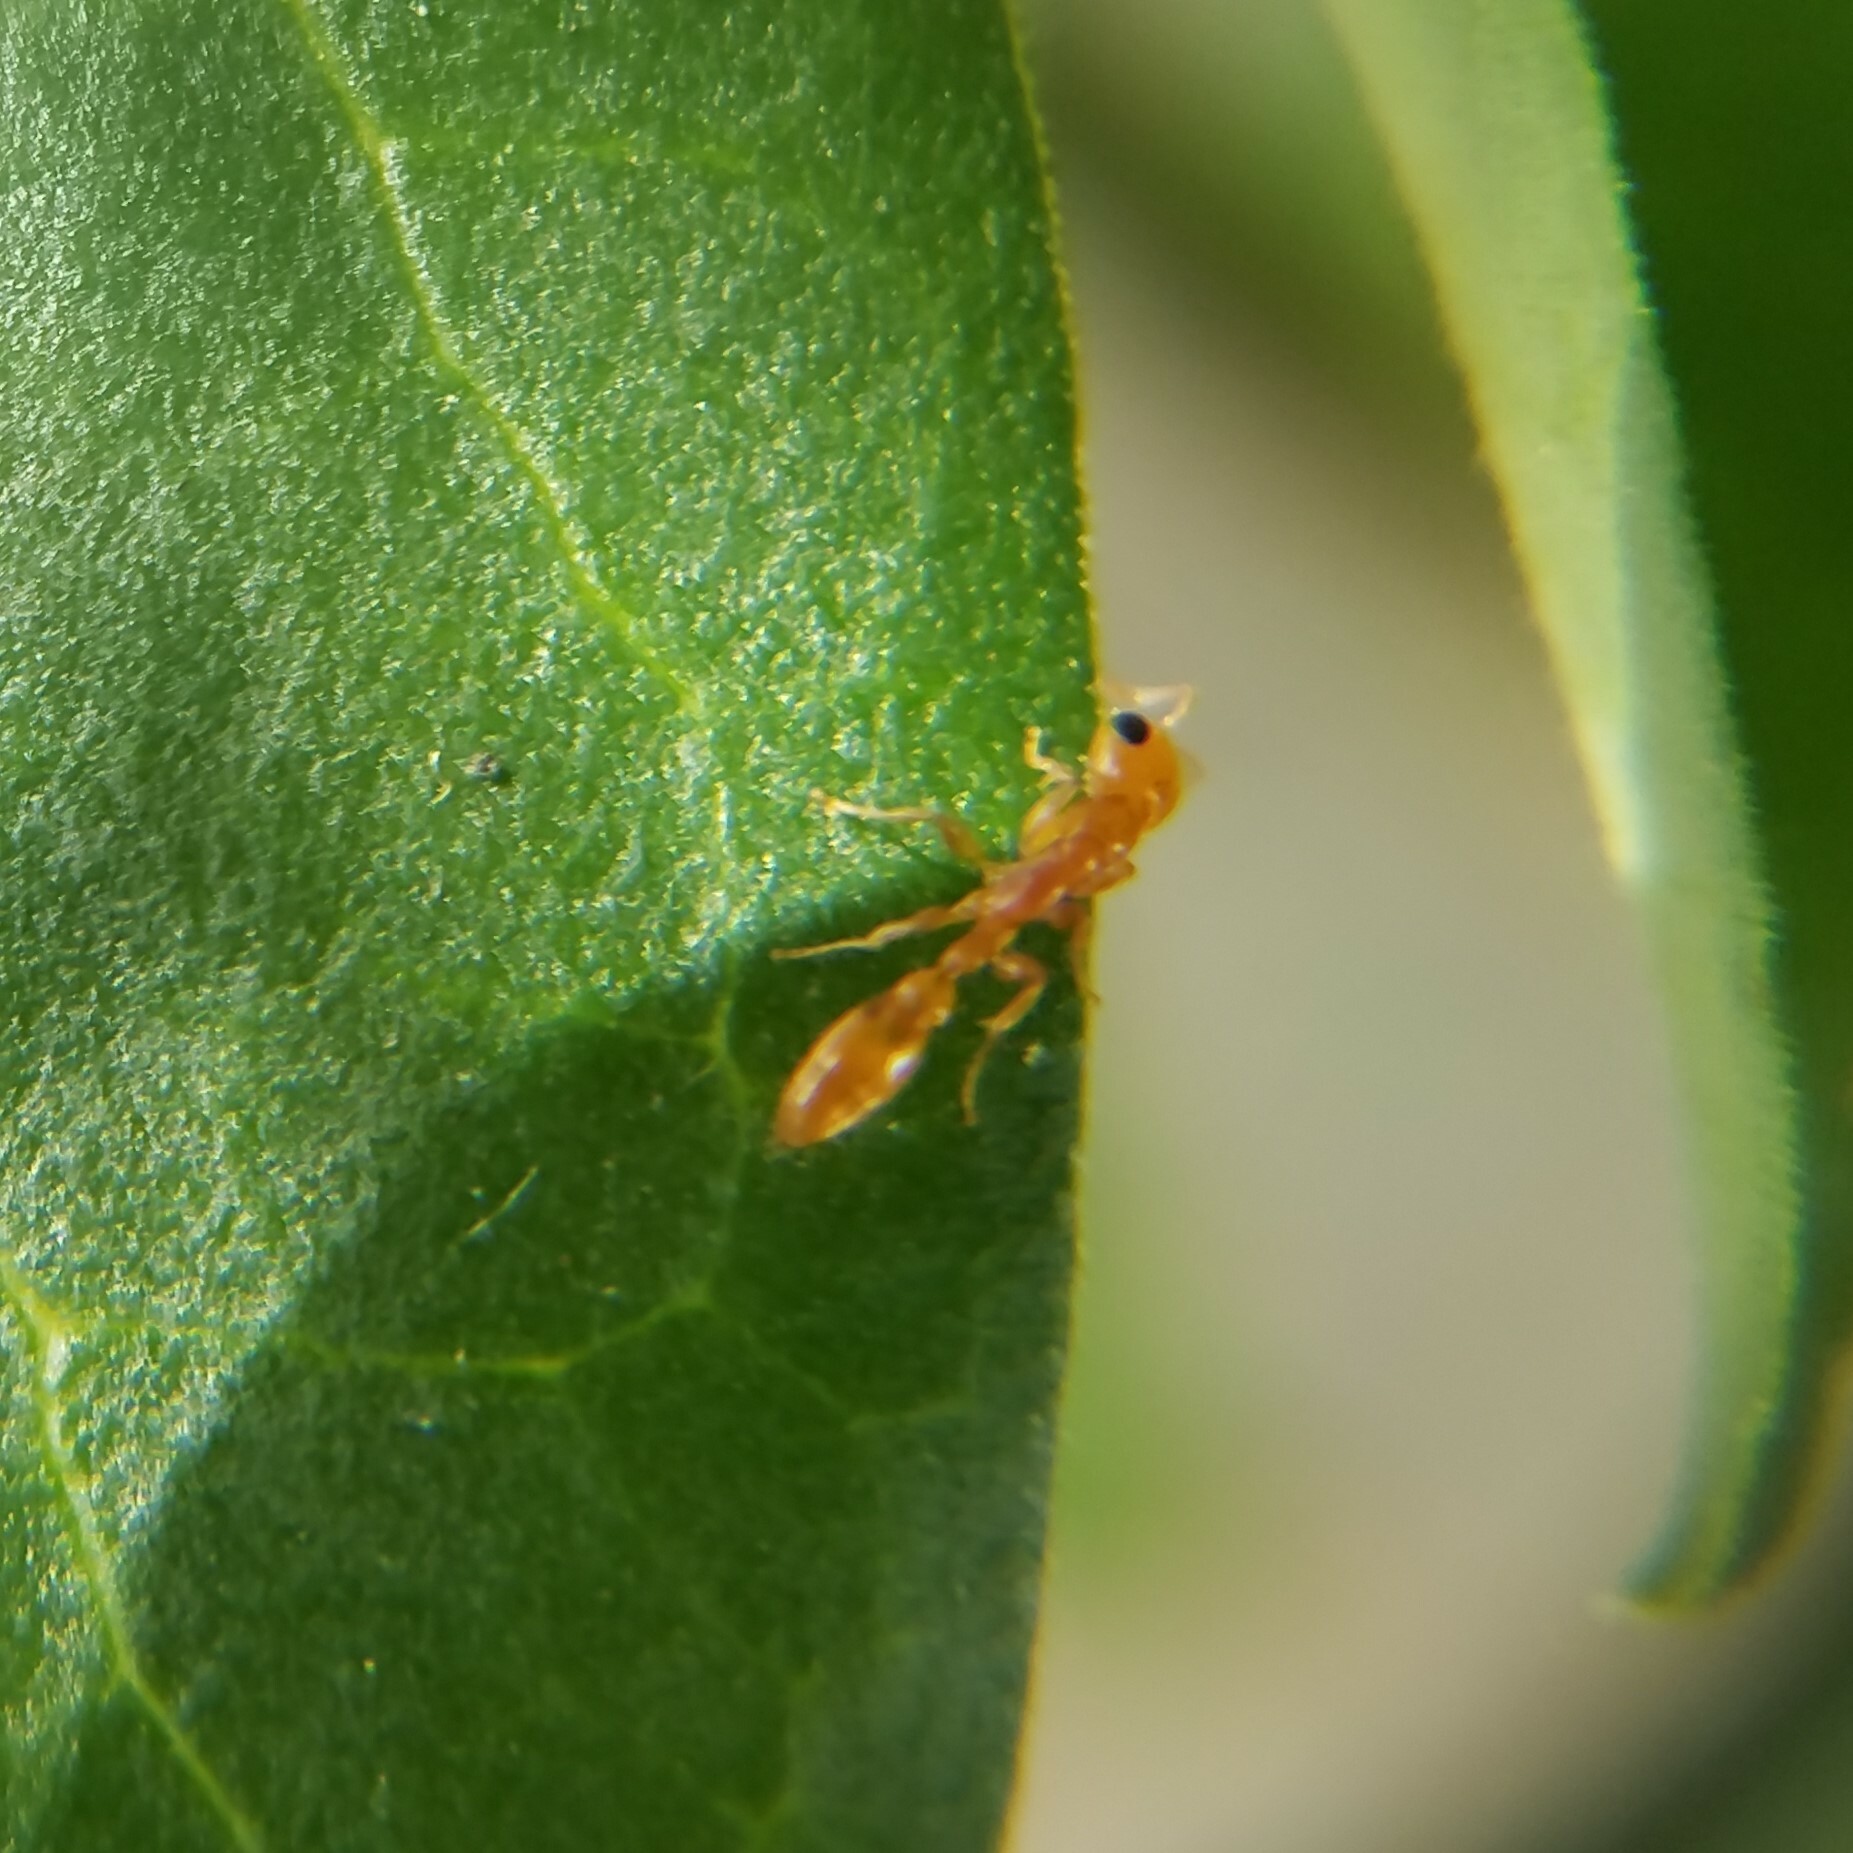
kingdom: Animalia
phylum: Arthropoda
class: Insecta
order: Hymenoptera
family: Formicidae
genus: Pseudomyrmex
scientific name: Pseudomyrmex pallidus
